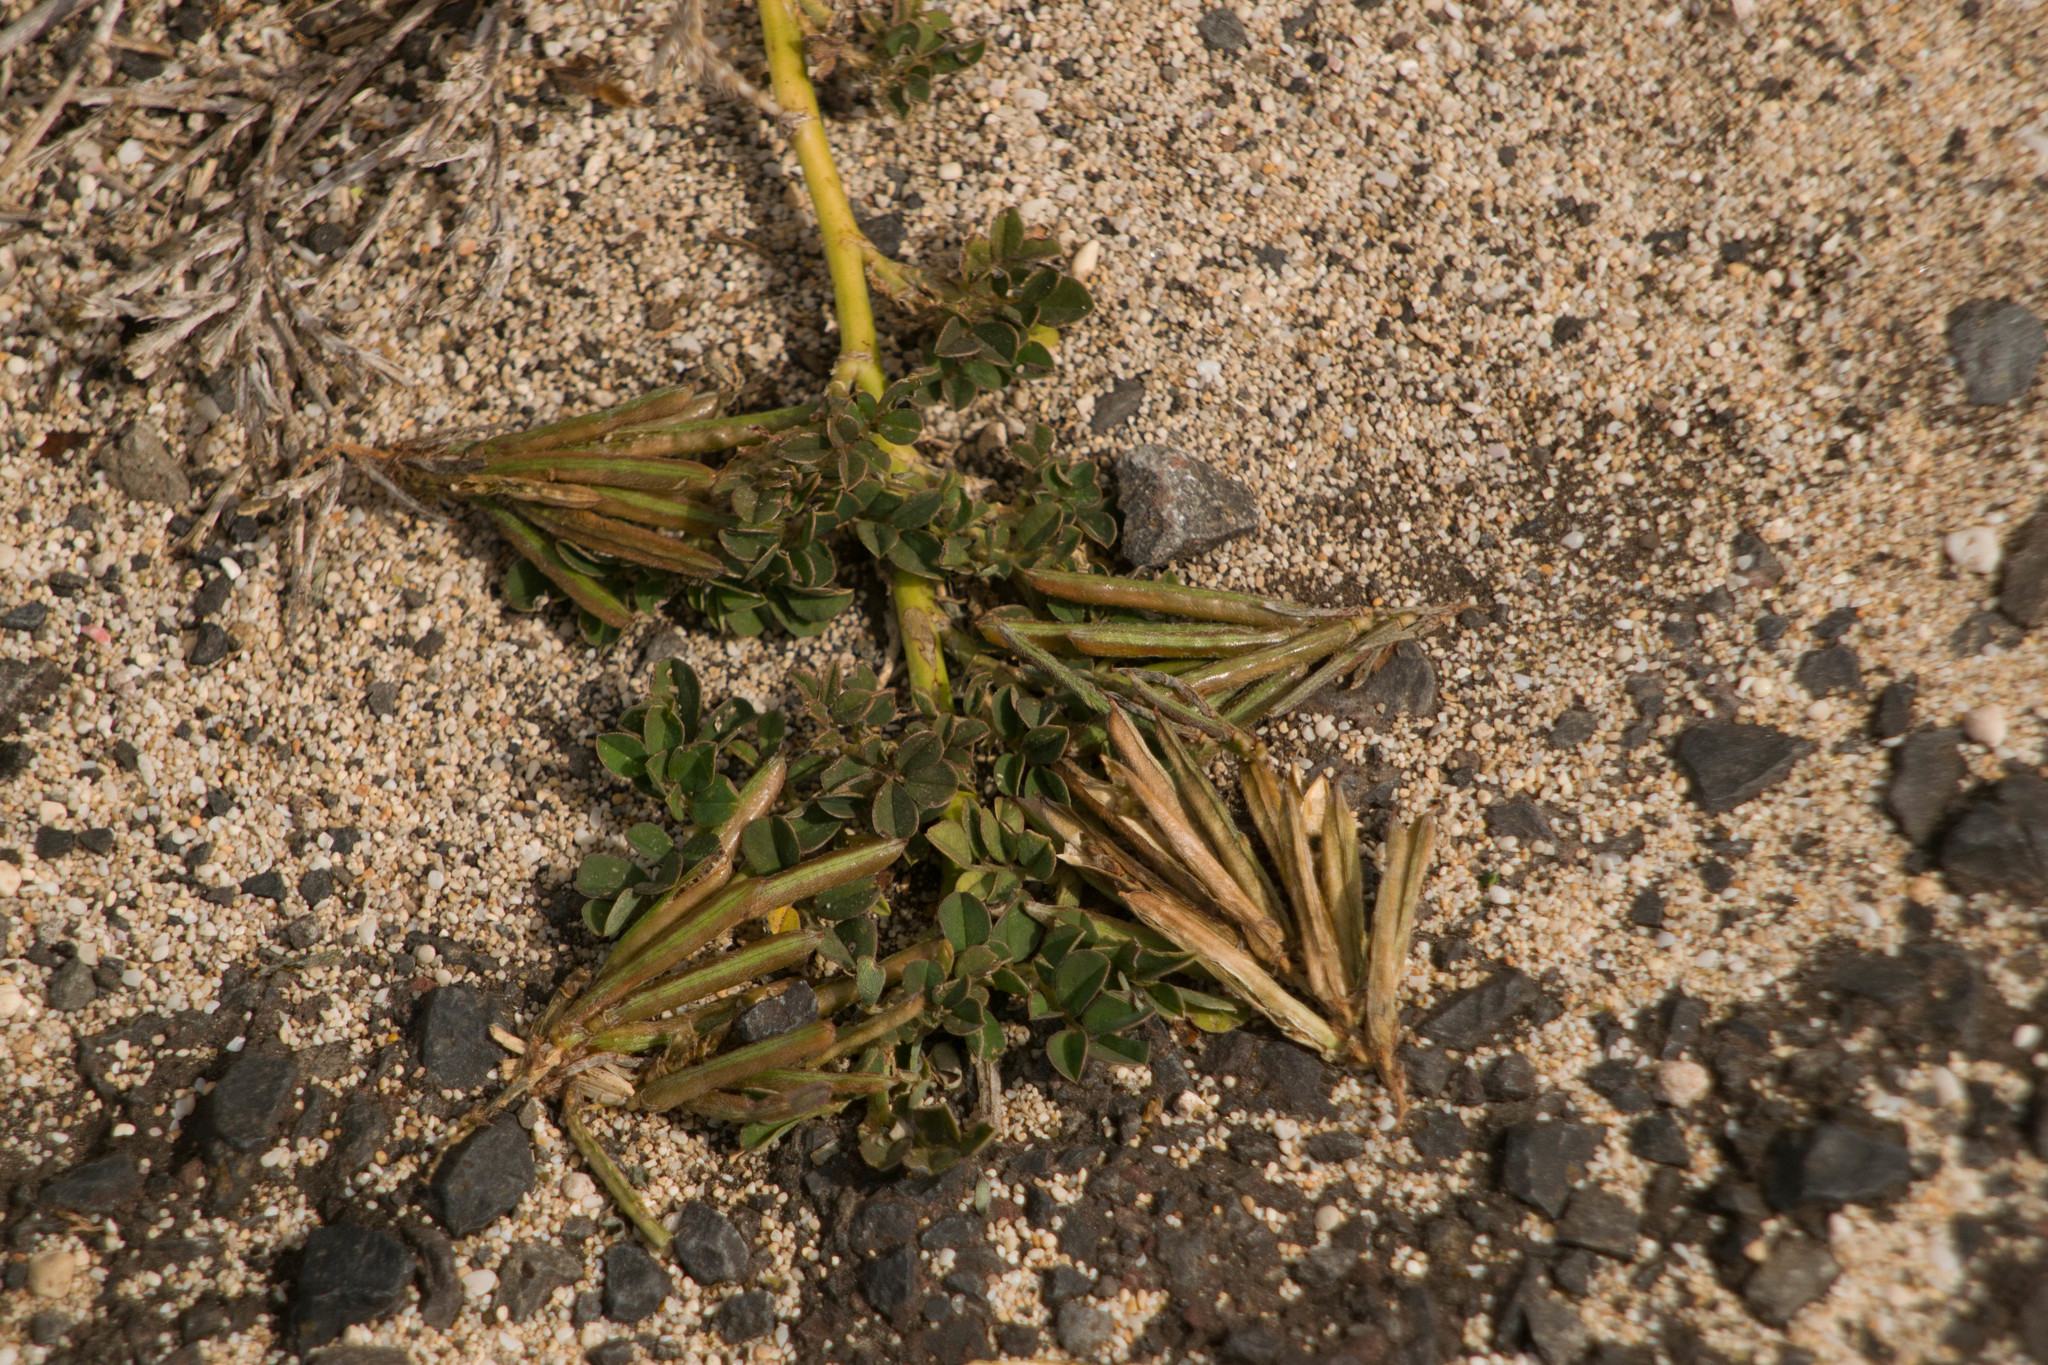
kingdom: Plantae
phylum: Tracheophyta
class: Magnoliopsida
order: Fabales
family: Fabaceae
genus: Indigofera
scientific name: Indigofera spicata
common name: Creeping indigo
